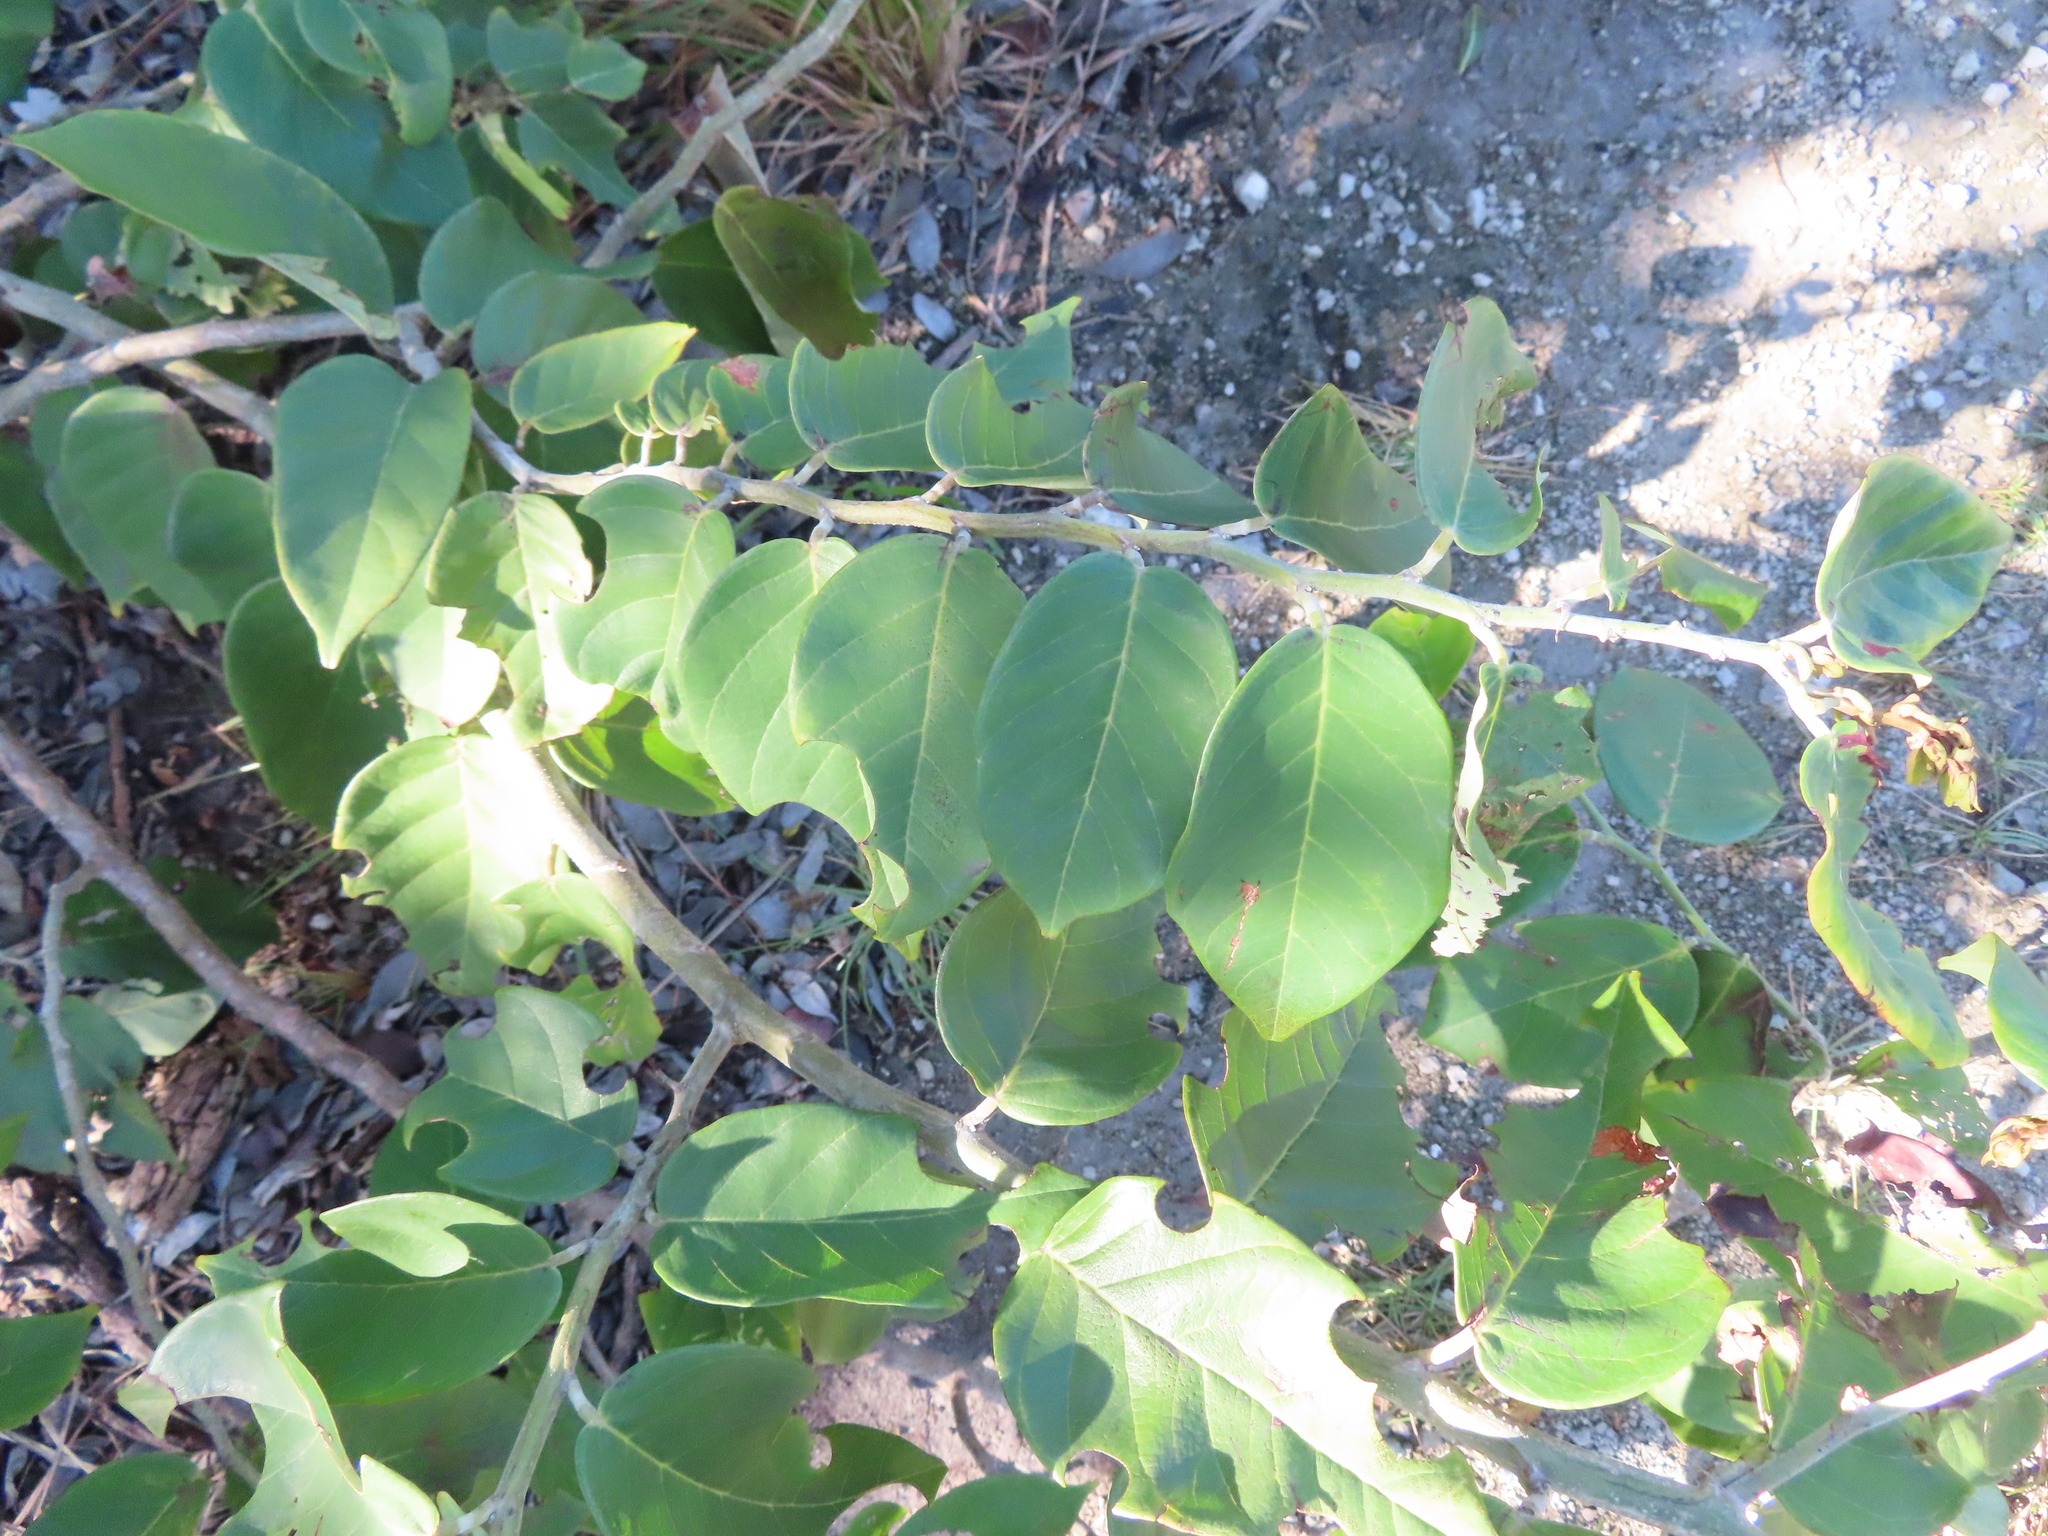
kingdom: Plantae
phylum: Tracheophyta
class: Magnoliopsida
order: Fabales
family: Fabaceae
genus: Dalbergia
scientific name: Dalbergia ecastaphyllum
